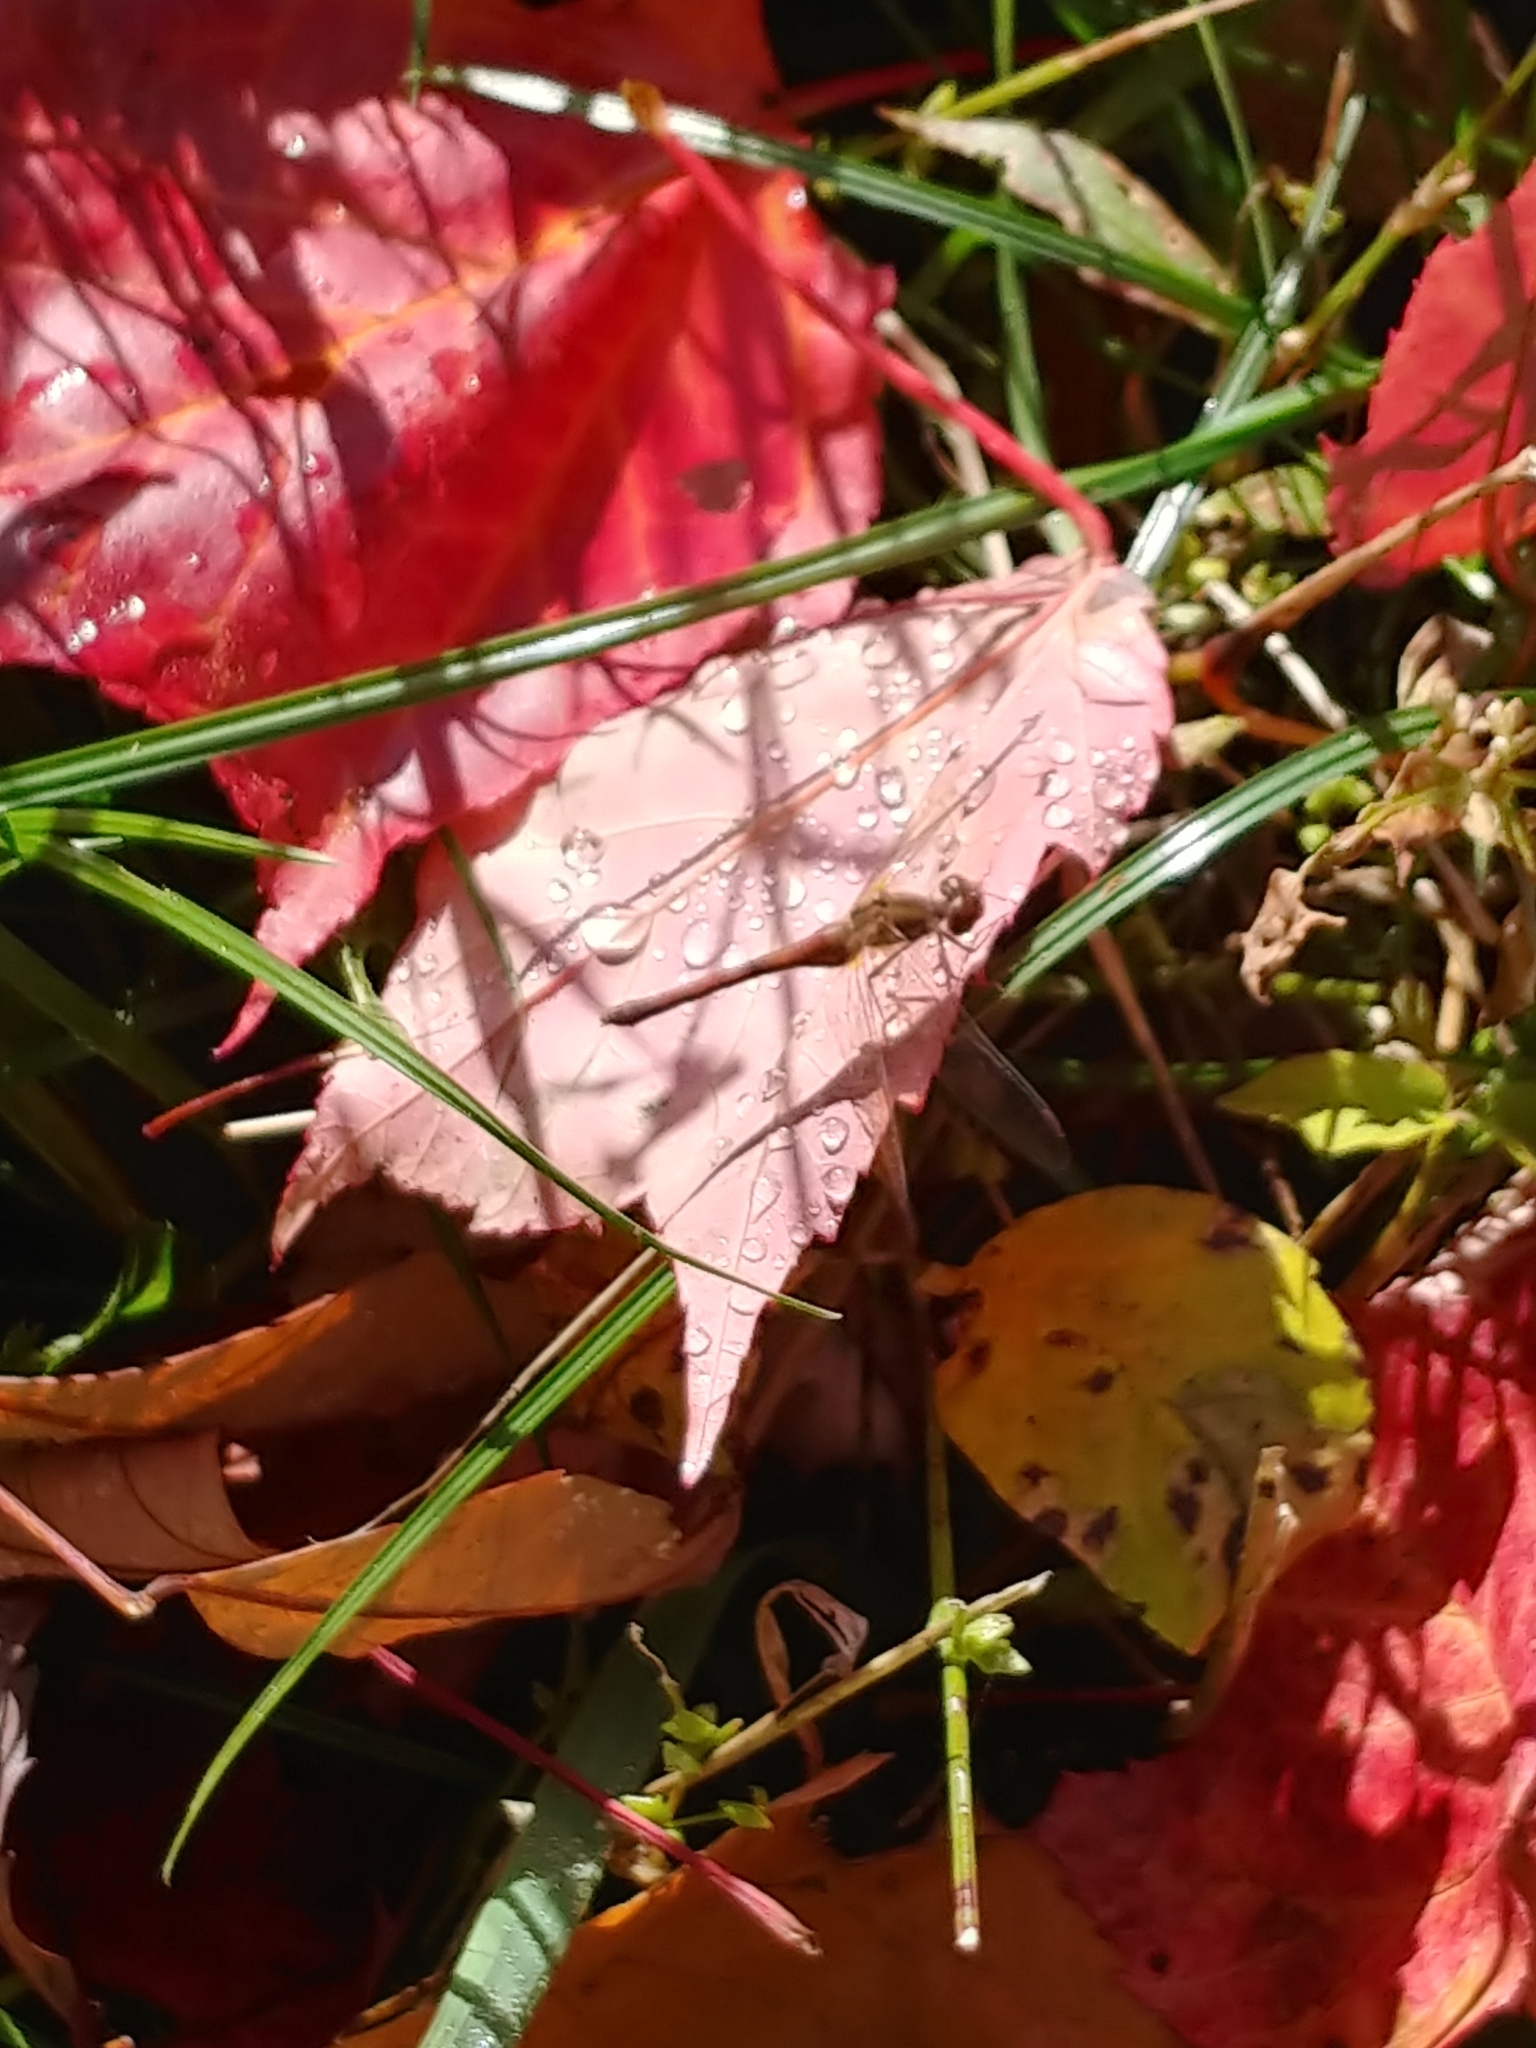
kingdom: Animalia
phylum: Arthropoda
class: Insecta
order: Odonata
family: Libellulidae
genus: Sympetrum
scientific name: Sympetrum vicinum
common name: Autumn meadowhawk
